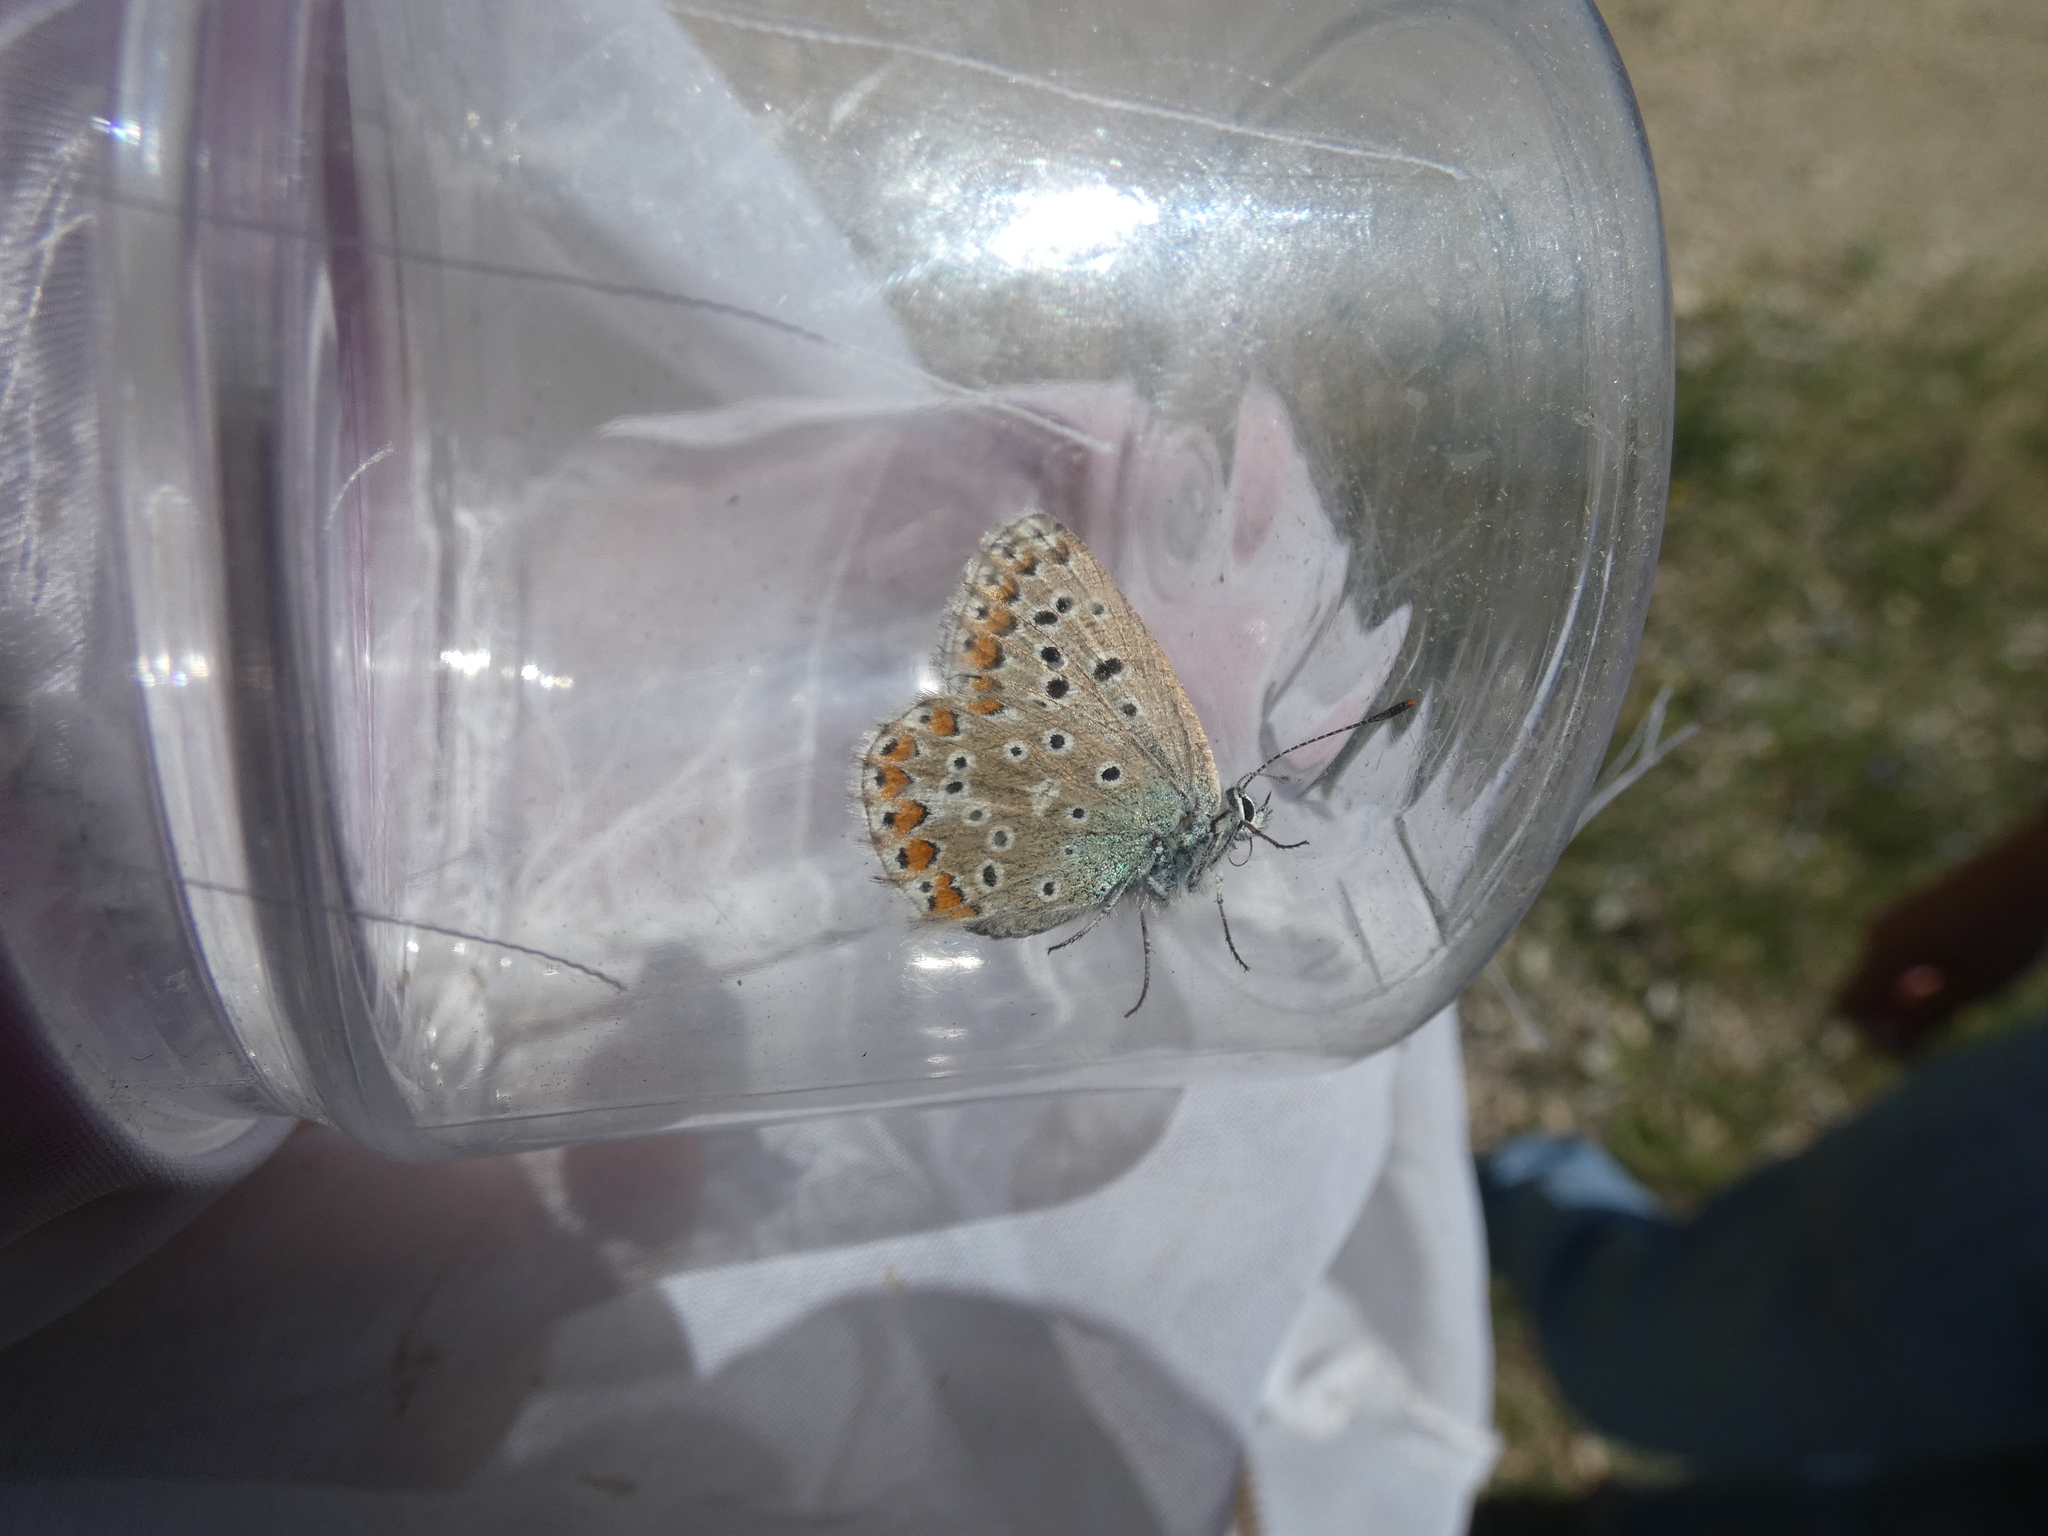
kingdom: Animalia
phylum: Arthropoda
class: Insecta
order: Lepidoptera
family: Lycaenidae
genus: Lysandra
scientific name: Lysandra bellargus
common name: Adonis blue
